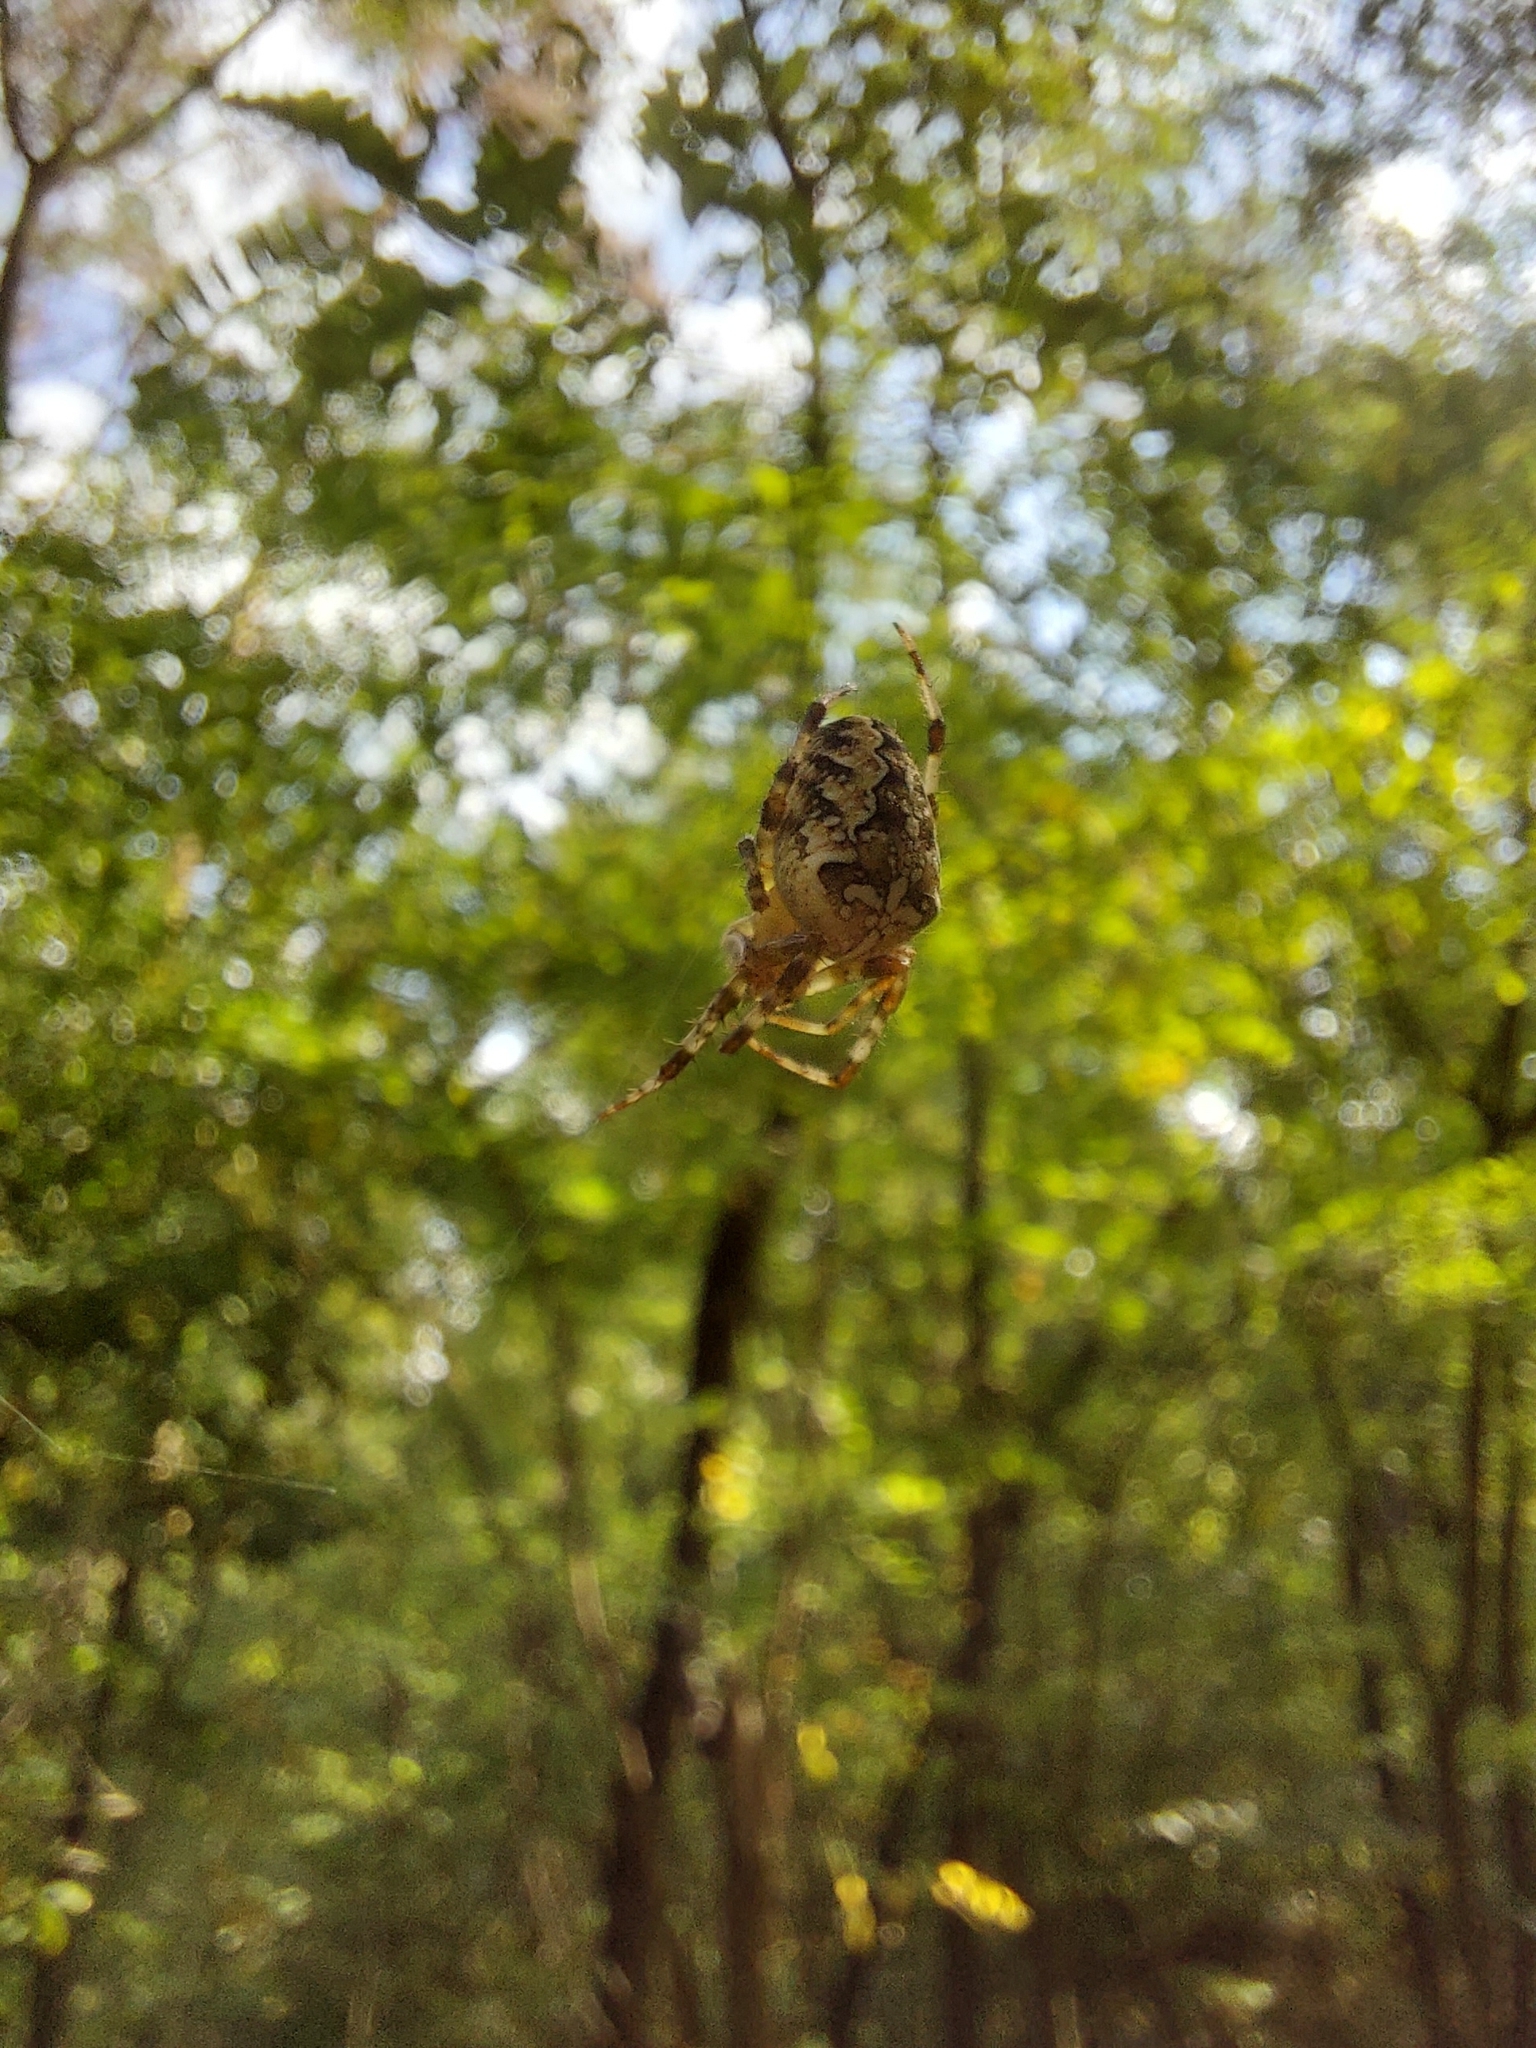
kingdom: Animalia
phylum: Arthropoda
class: Arachnida
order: Araneae
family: Araneidae
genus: Araneus
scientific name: Araneus diadematus
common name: Cross orbweaver
